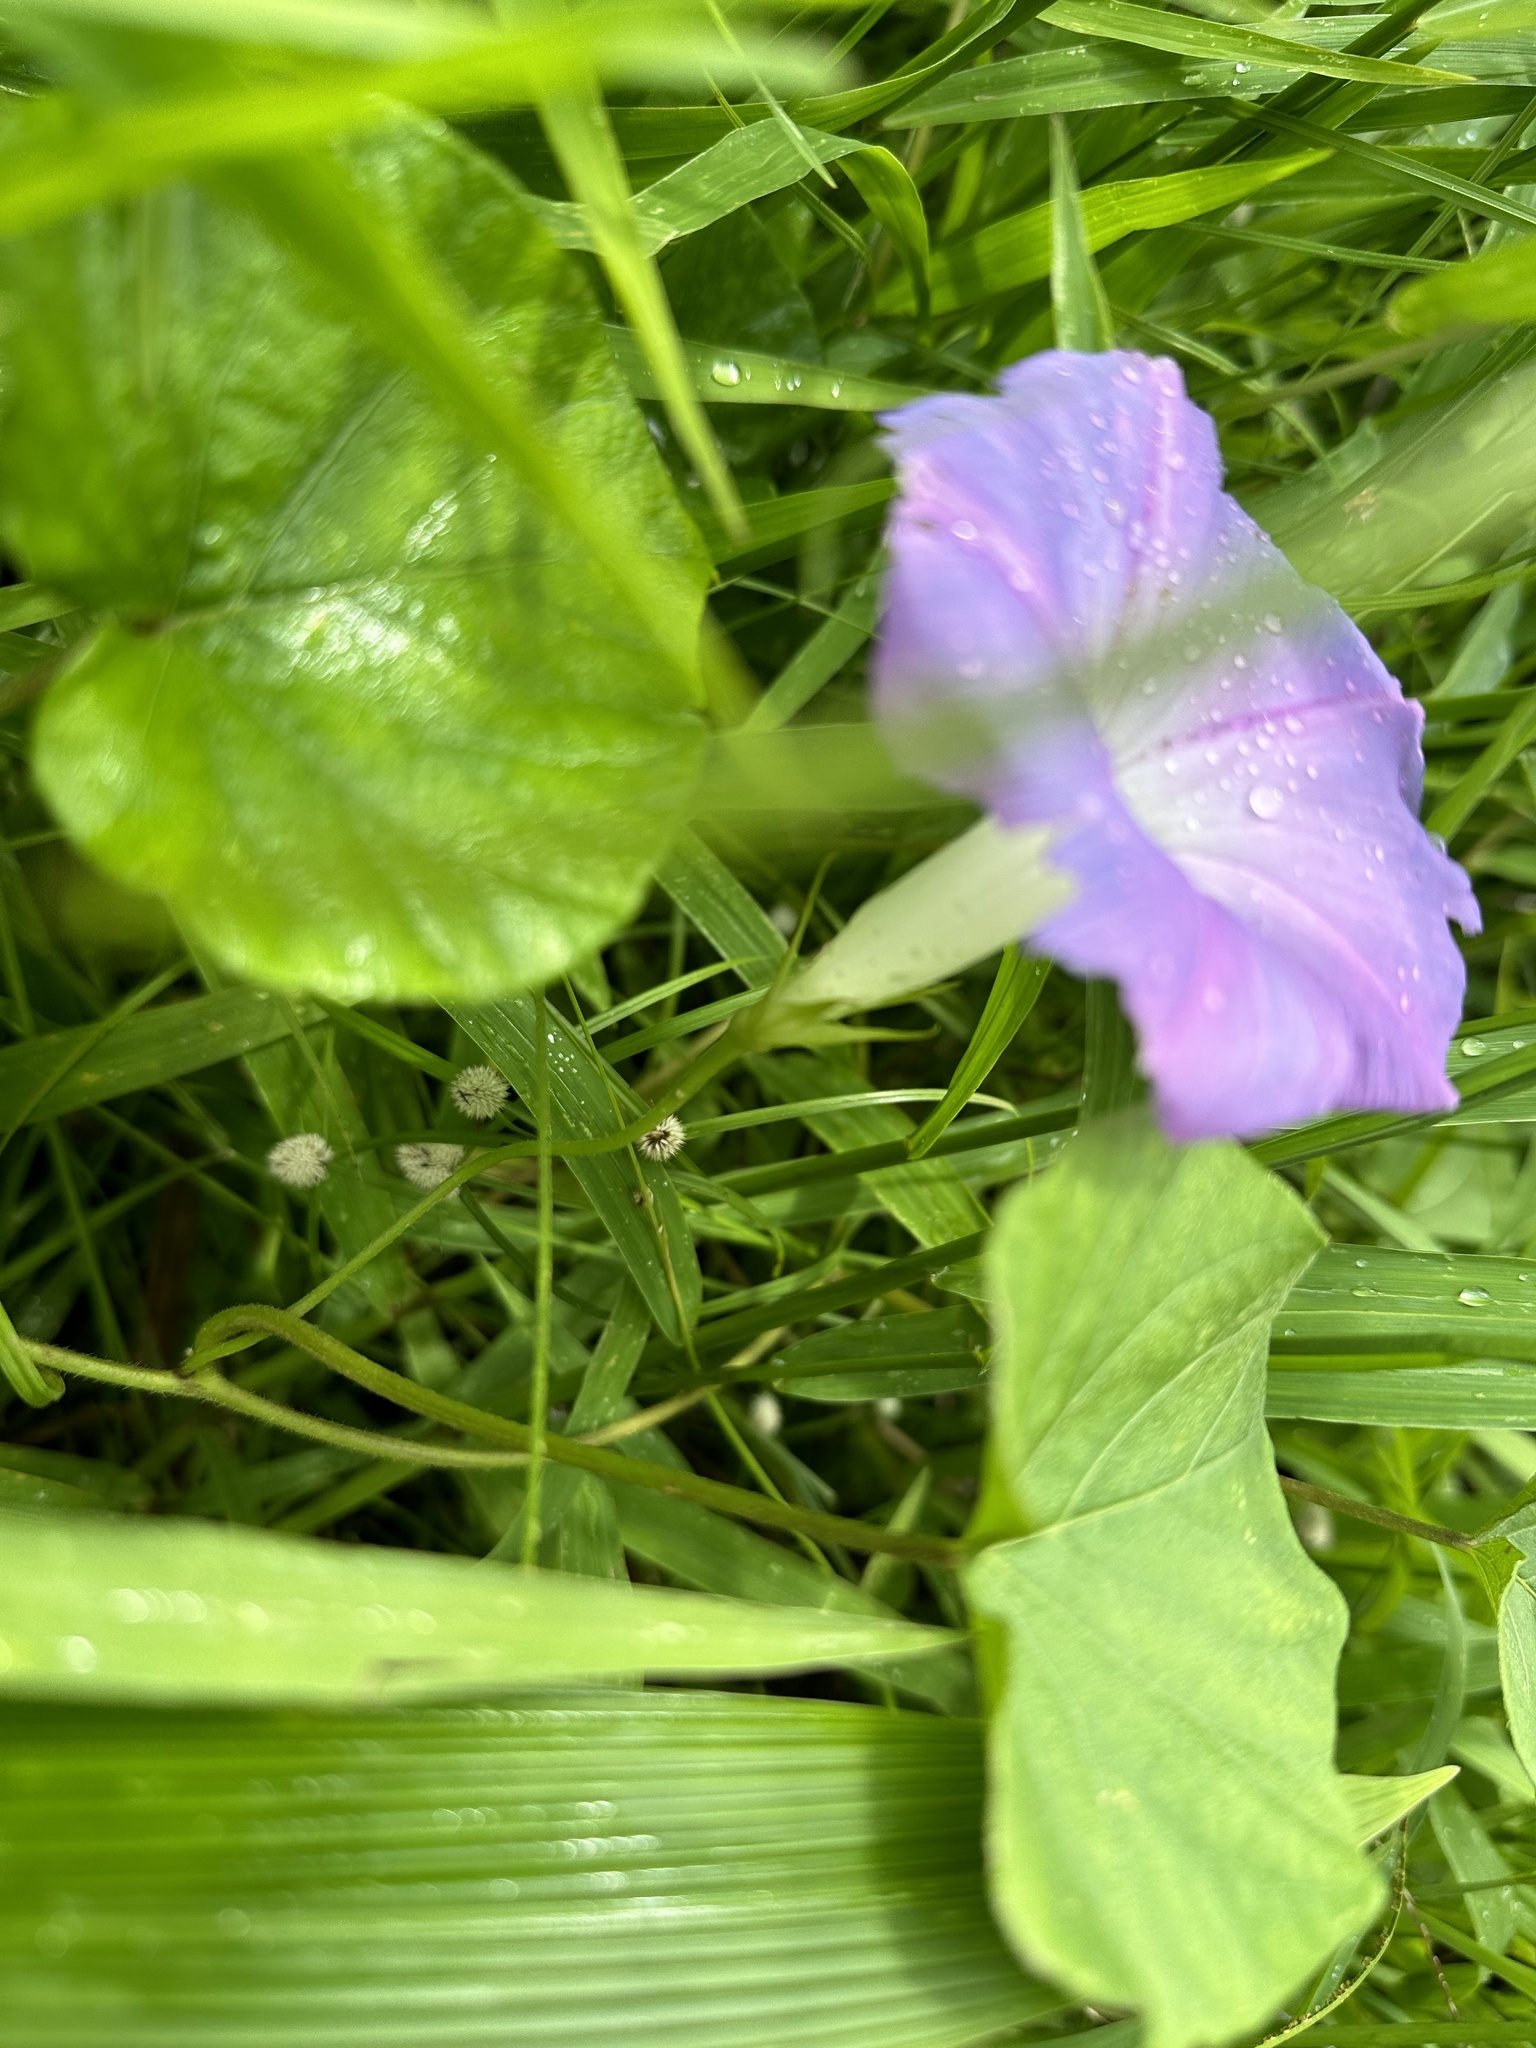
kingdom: Plantae
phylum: Tracheophyta
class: Magnoliopsida
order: Solanales
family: Convolvulaceae
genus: Ipomoea
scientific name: Ipomoea indica
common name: Blue dawnflower
